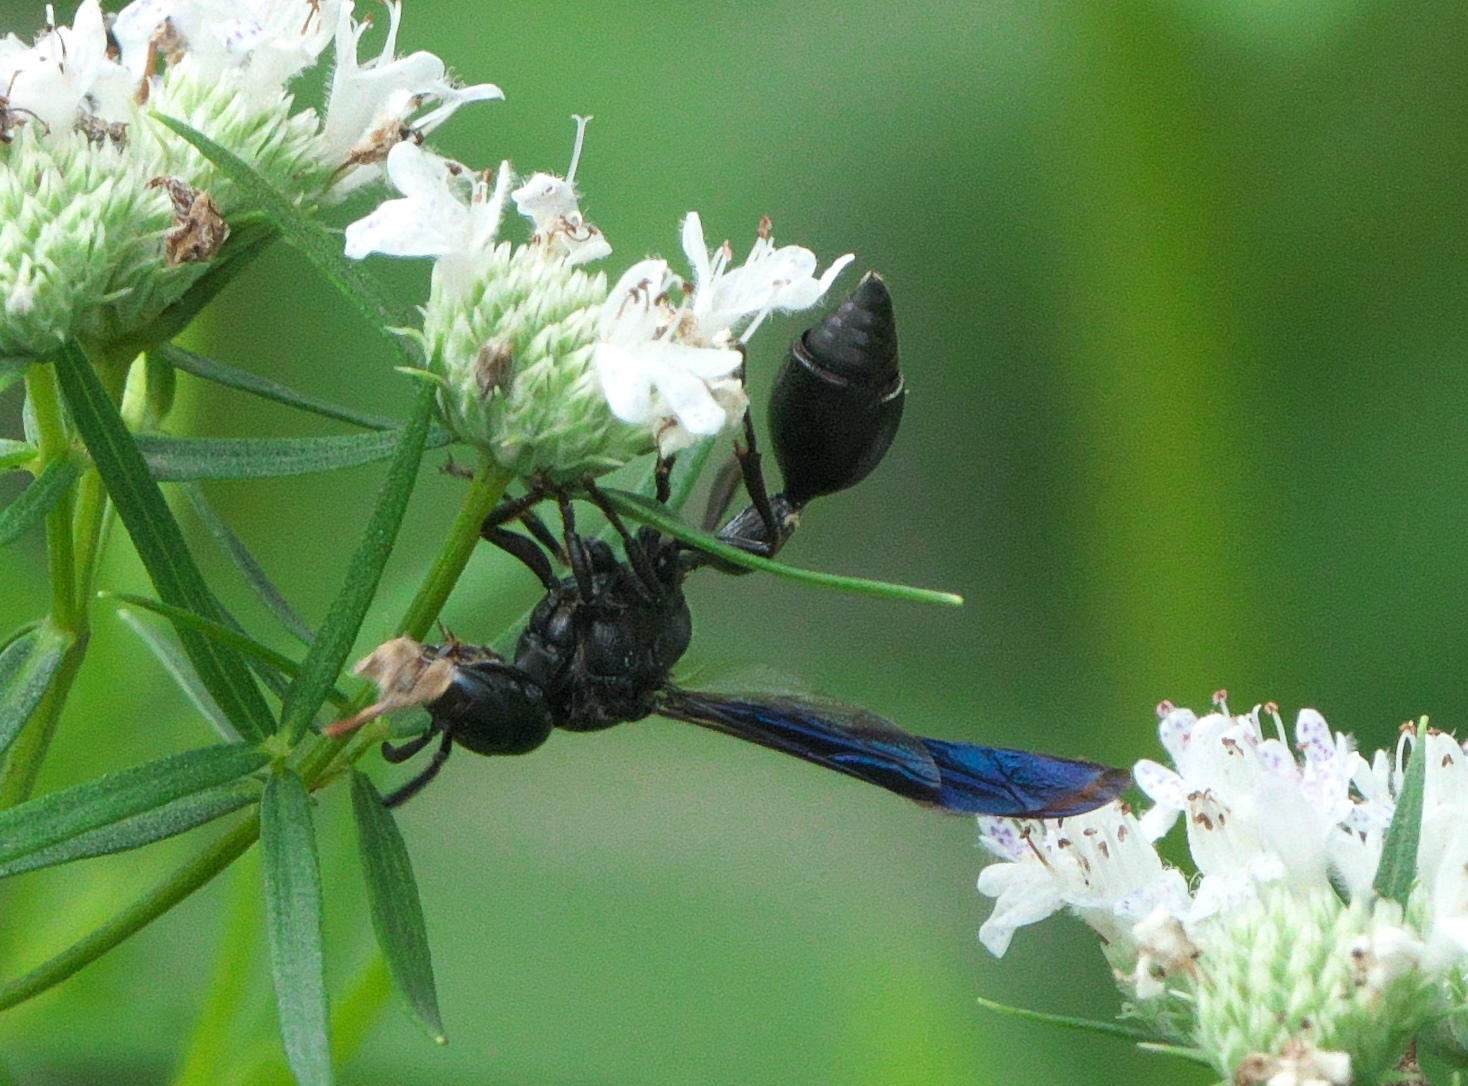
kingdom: Animalia
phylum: Arthropoda
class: Insecta
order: Hymenoptera
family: Eumenidae
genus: Zethus
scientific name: Zethus spinipes
